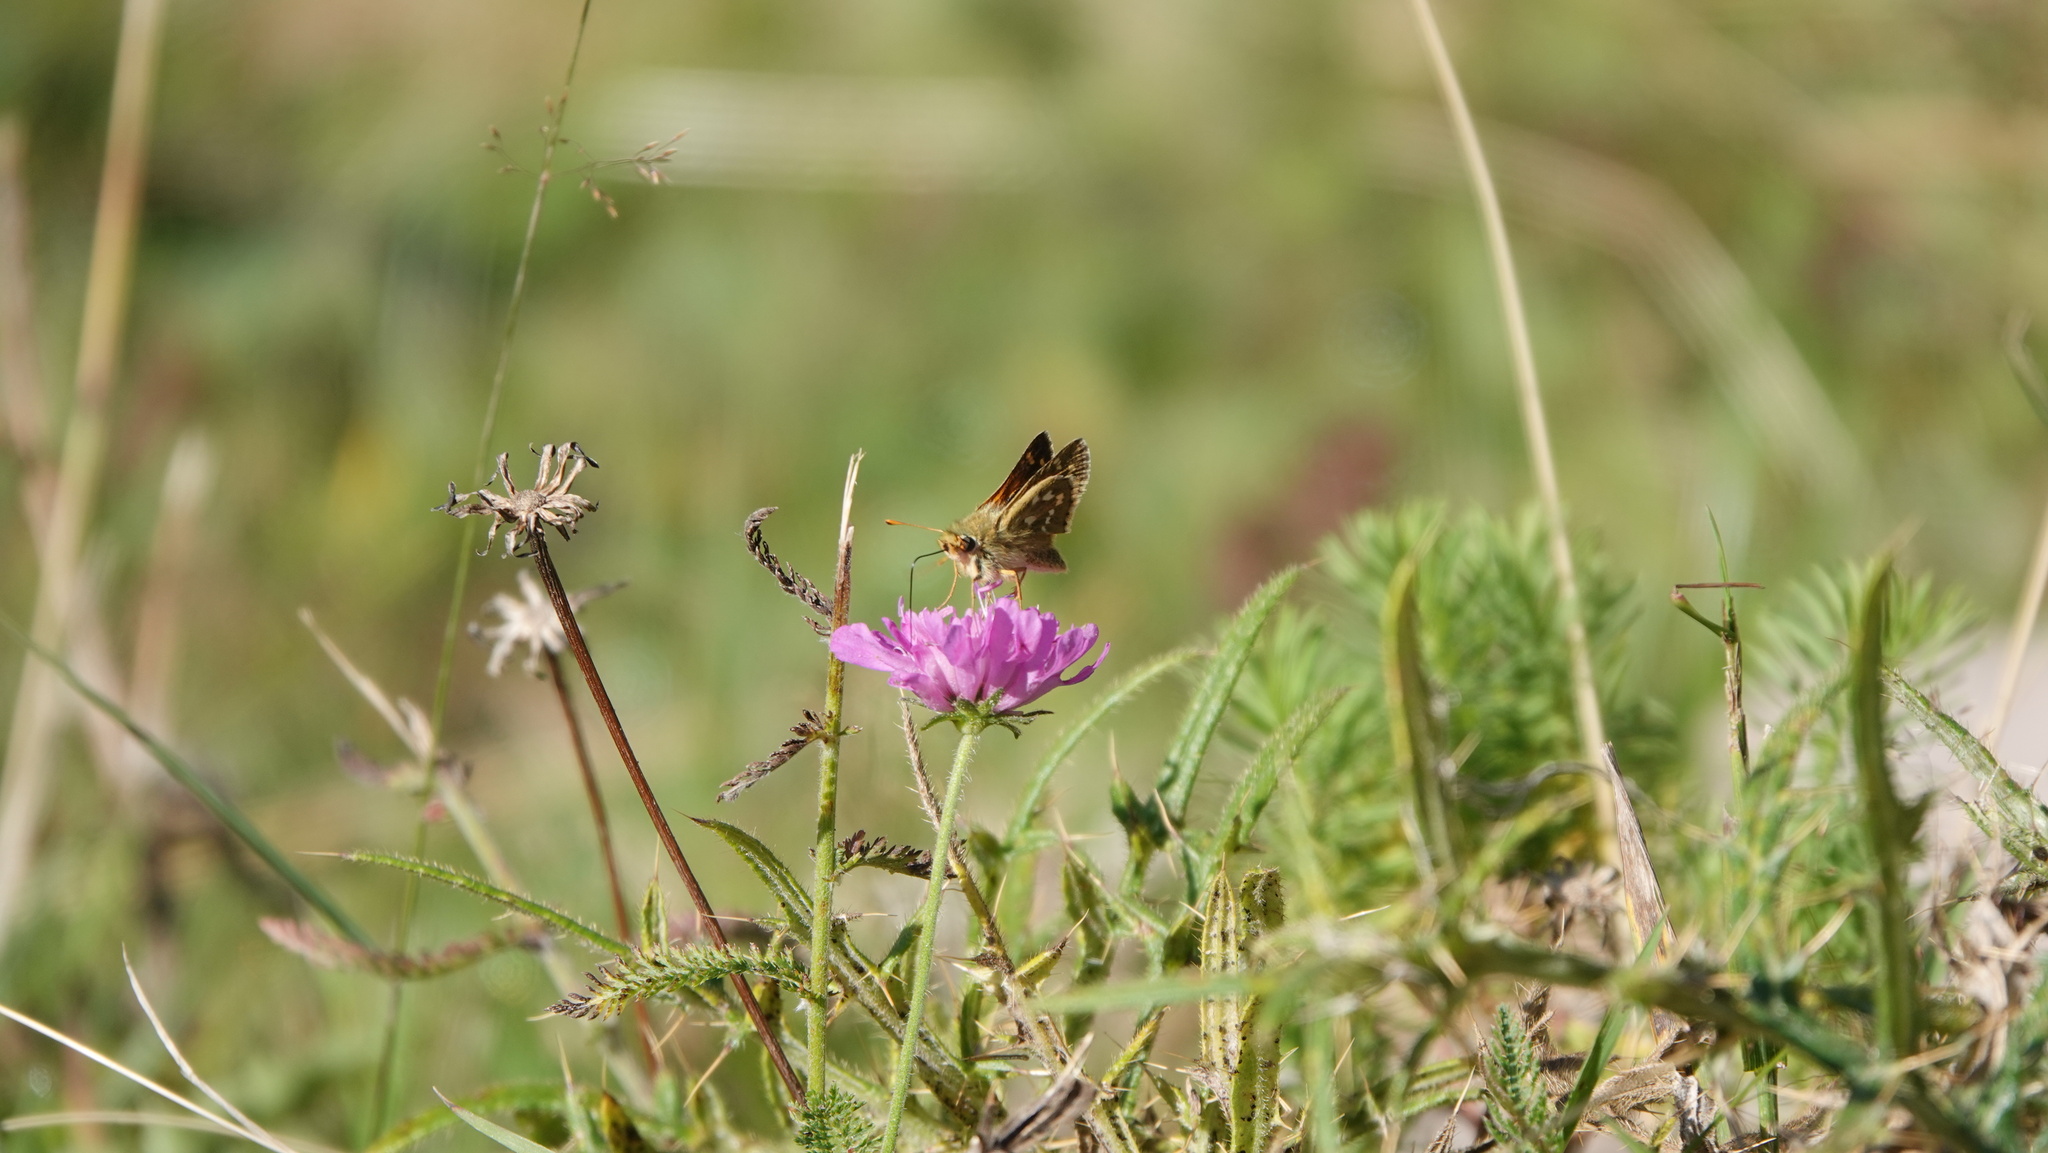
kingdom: Animalia
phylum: Arthropoda
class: Insecta
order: Lepidoptera
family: Hesperiidae
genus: Hesperia
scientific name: Hesperia comma
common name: Common branded skipper
